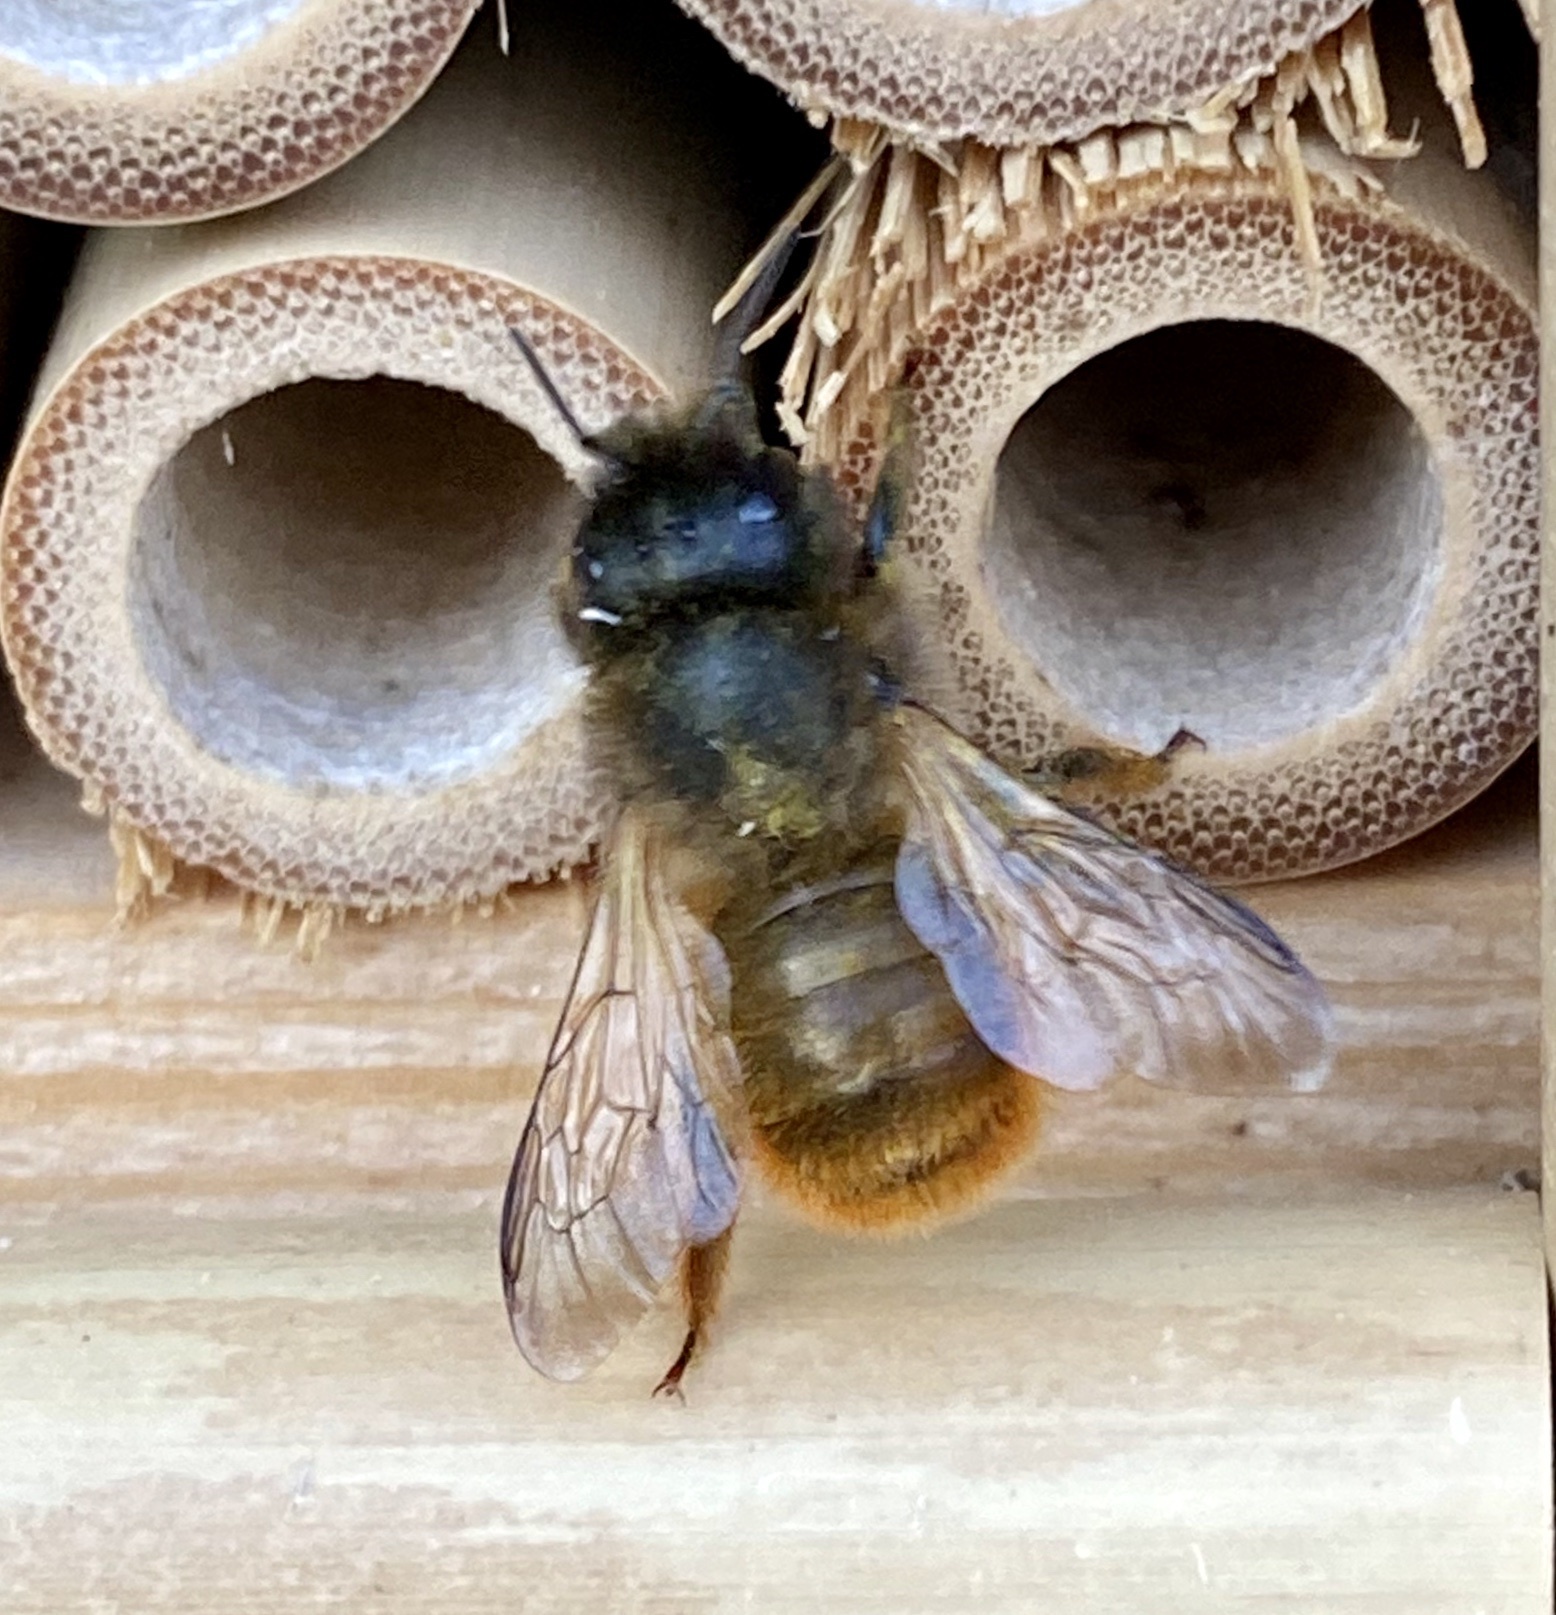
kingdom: Animalia
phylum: Arthropoda
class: Insecta
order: Hymenoptera
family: Megachilidae
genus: Osmia
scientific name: Osmia bicornis
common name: Red mason bee
